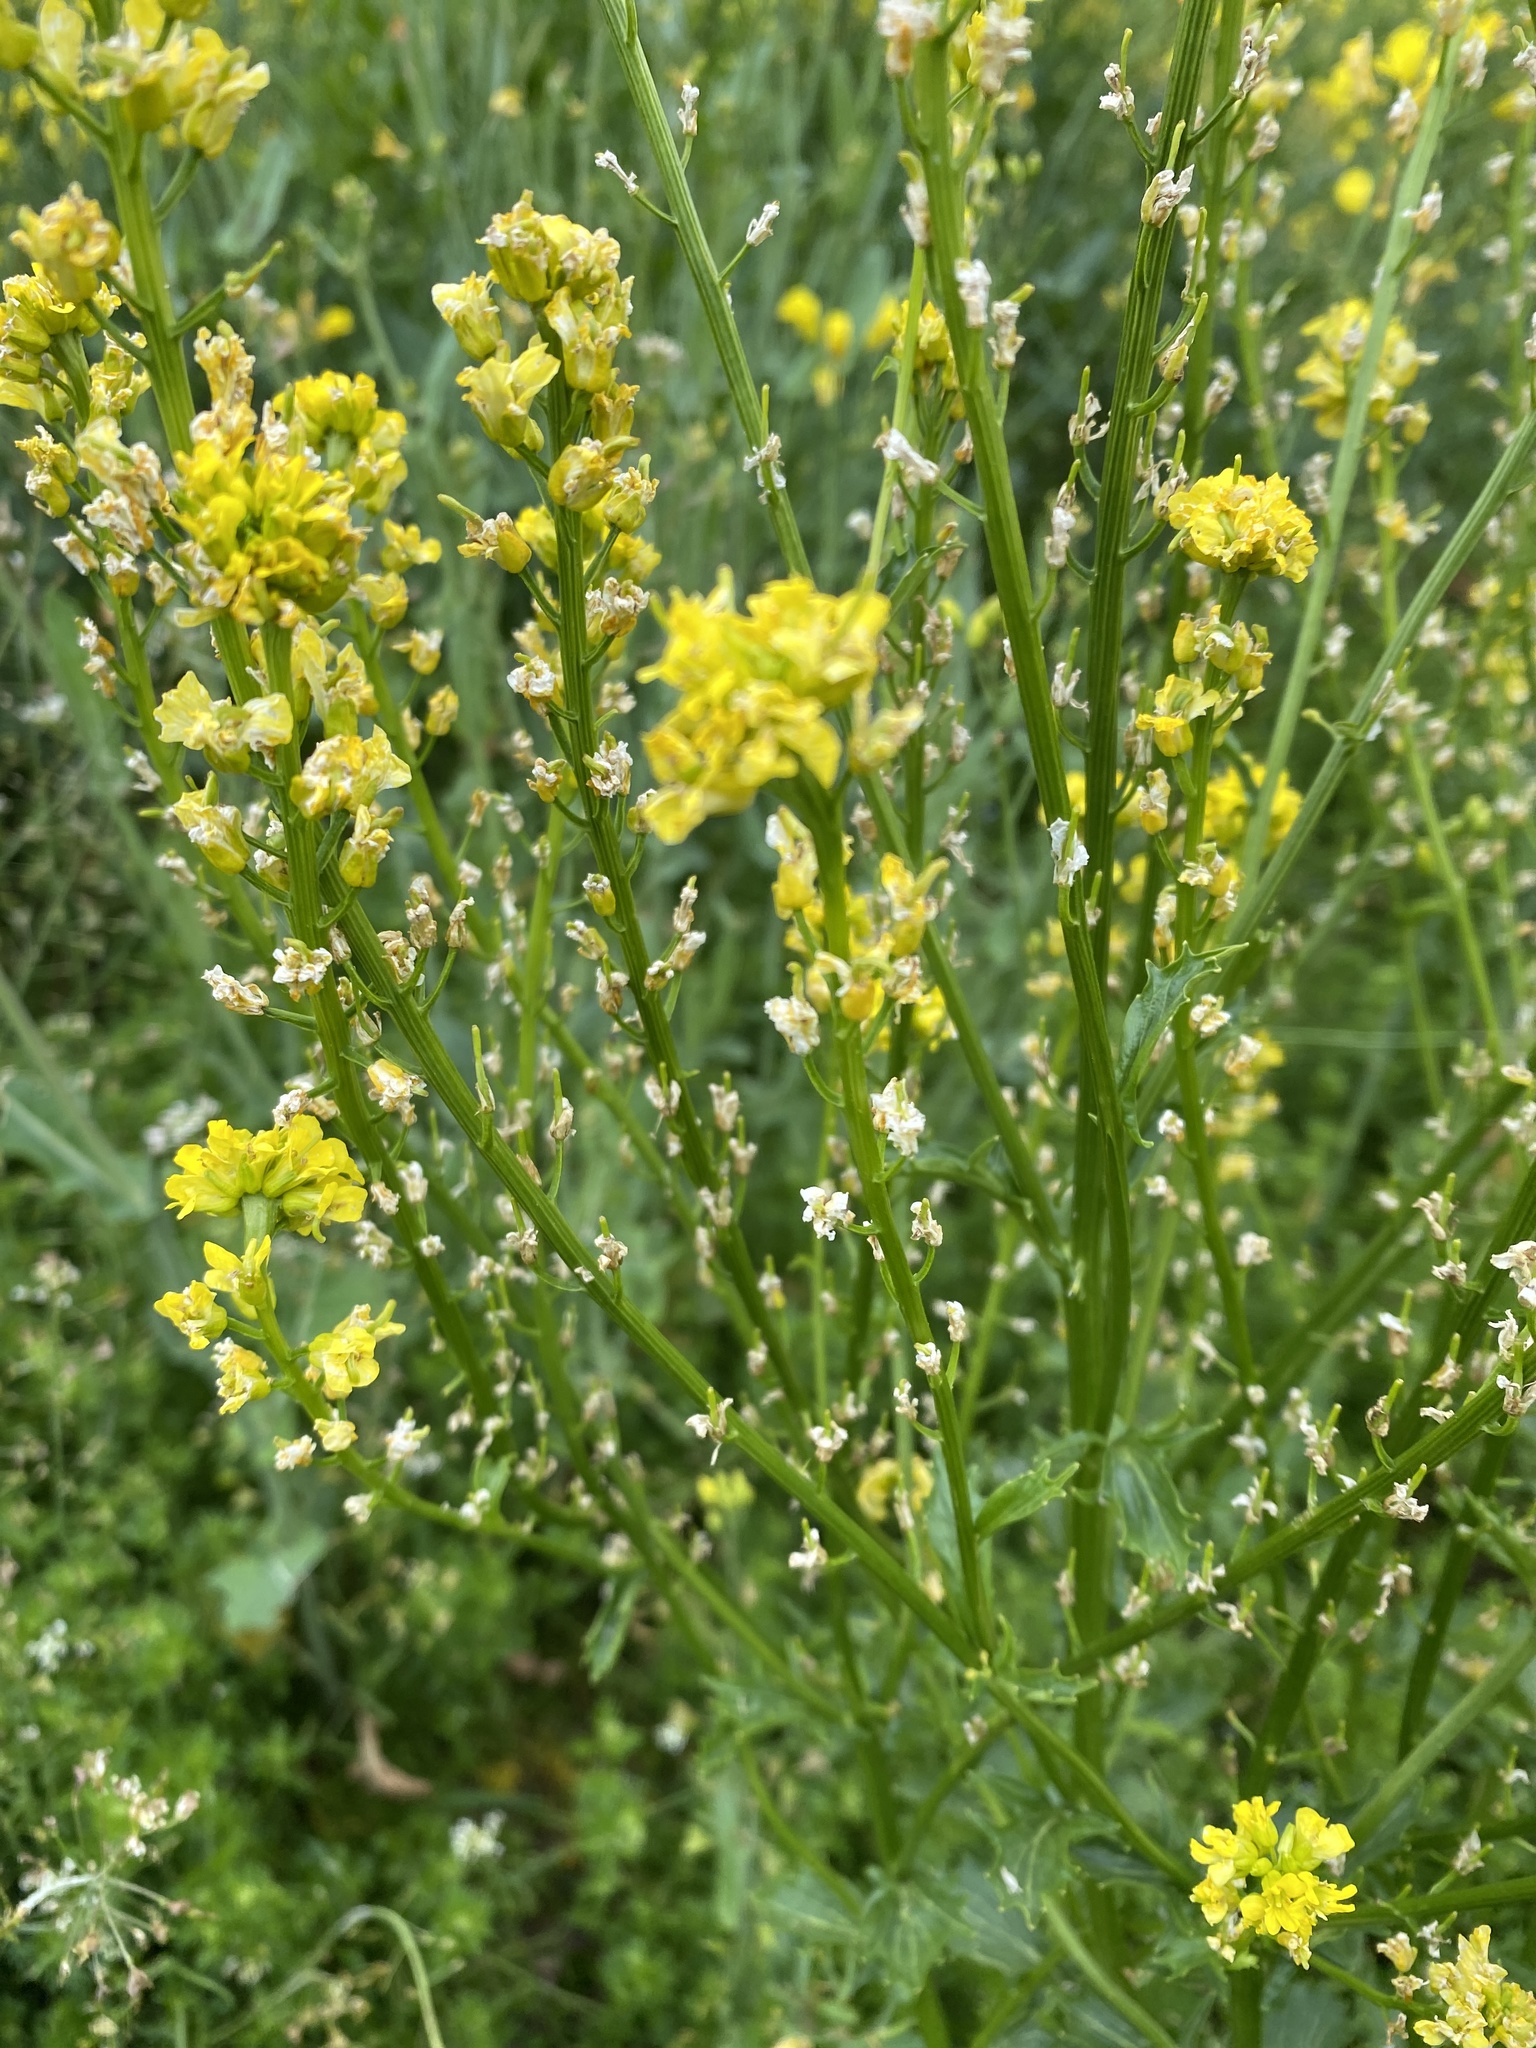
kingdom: Plantae
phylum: Tracheophyta
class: Magnoliopsida
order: Brassicales
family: Brassicaceae
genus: Barbarea
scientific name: Barbarea vulgaris
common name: Cressy-greens
